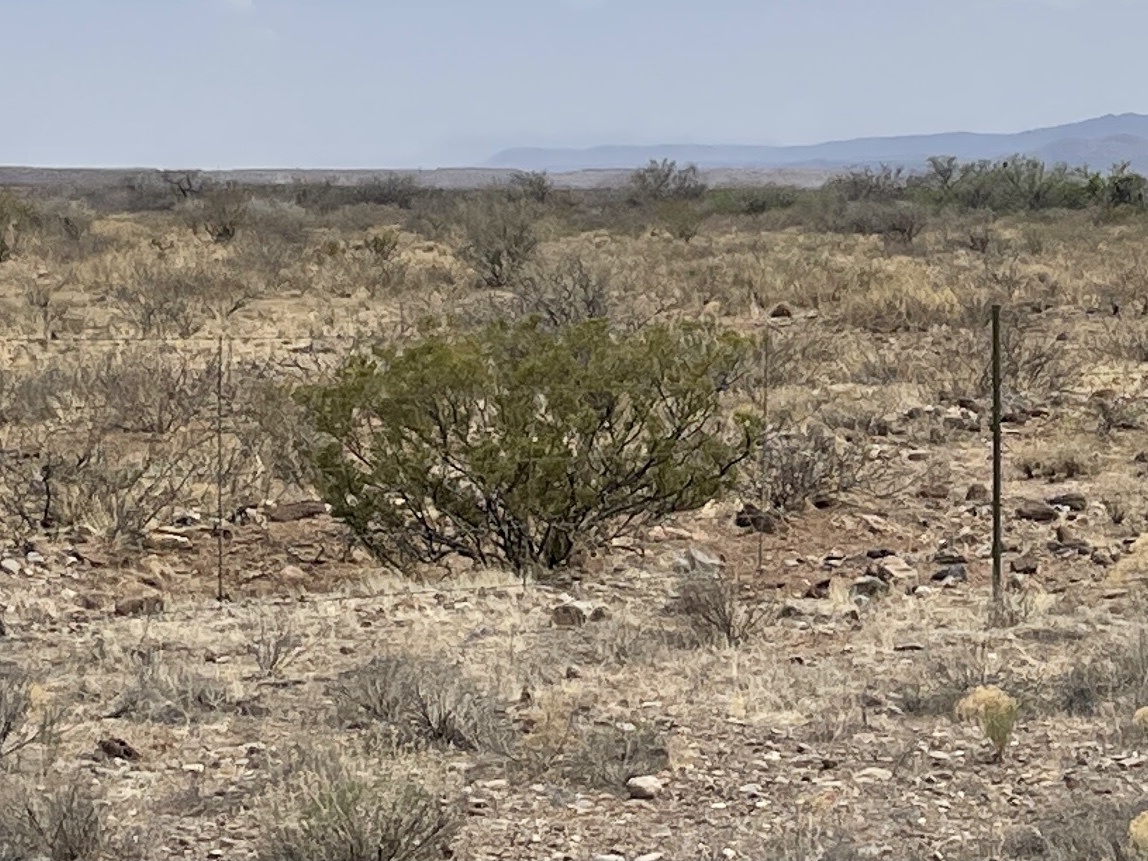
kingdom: Plantae
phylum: Tracheophyta
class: Magnoliopsida
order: Zygophyllales
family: Zygophyllaceae
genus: Larrea
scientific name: Larrea tridentata
